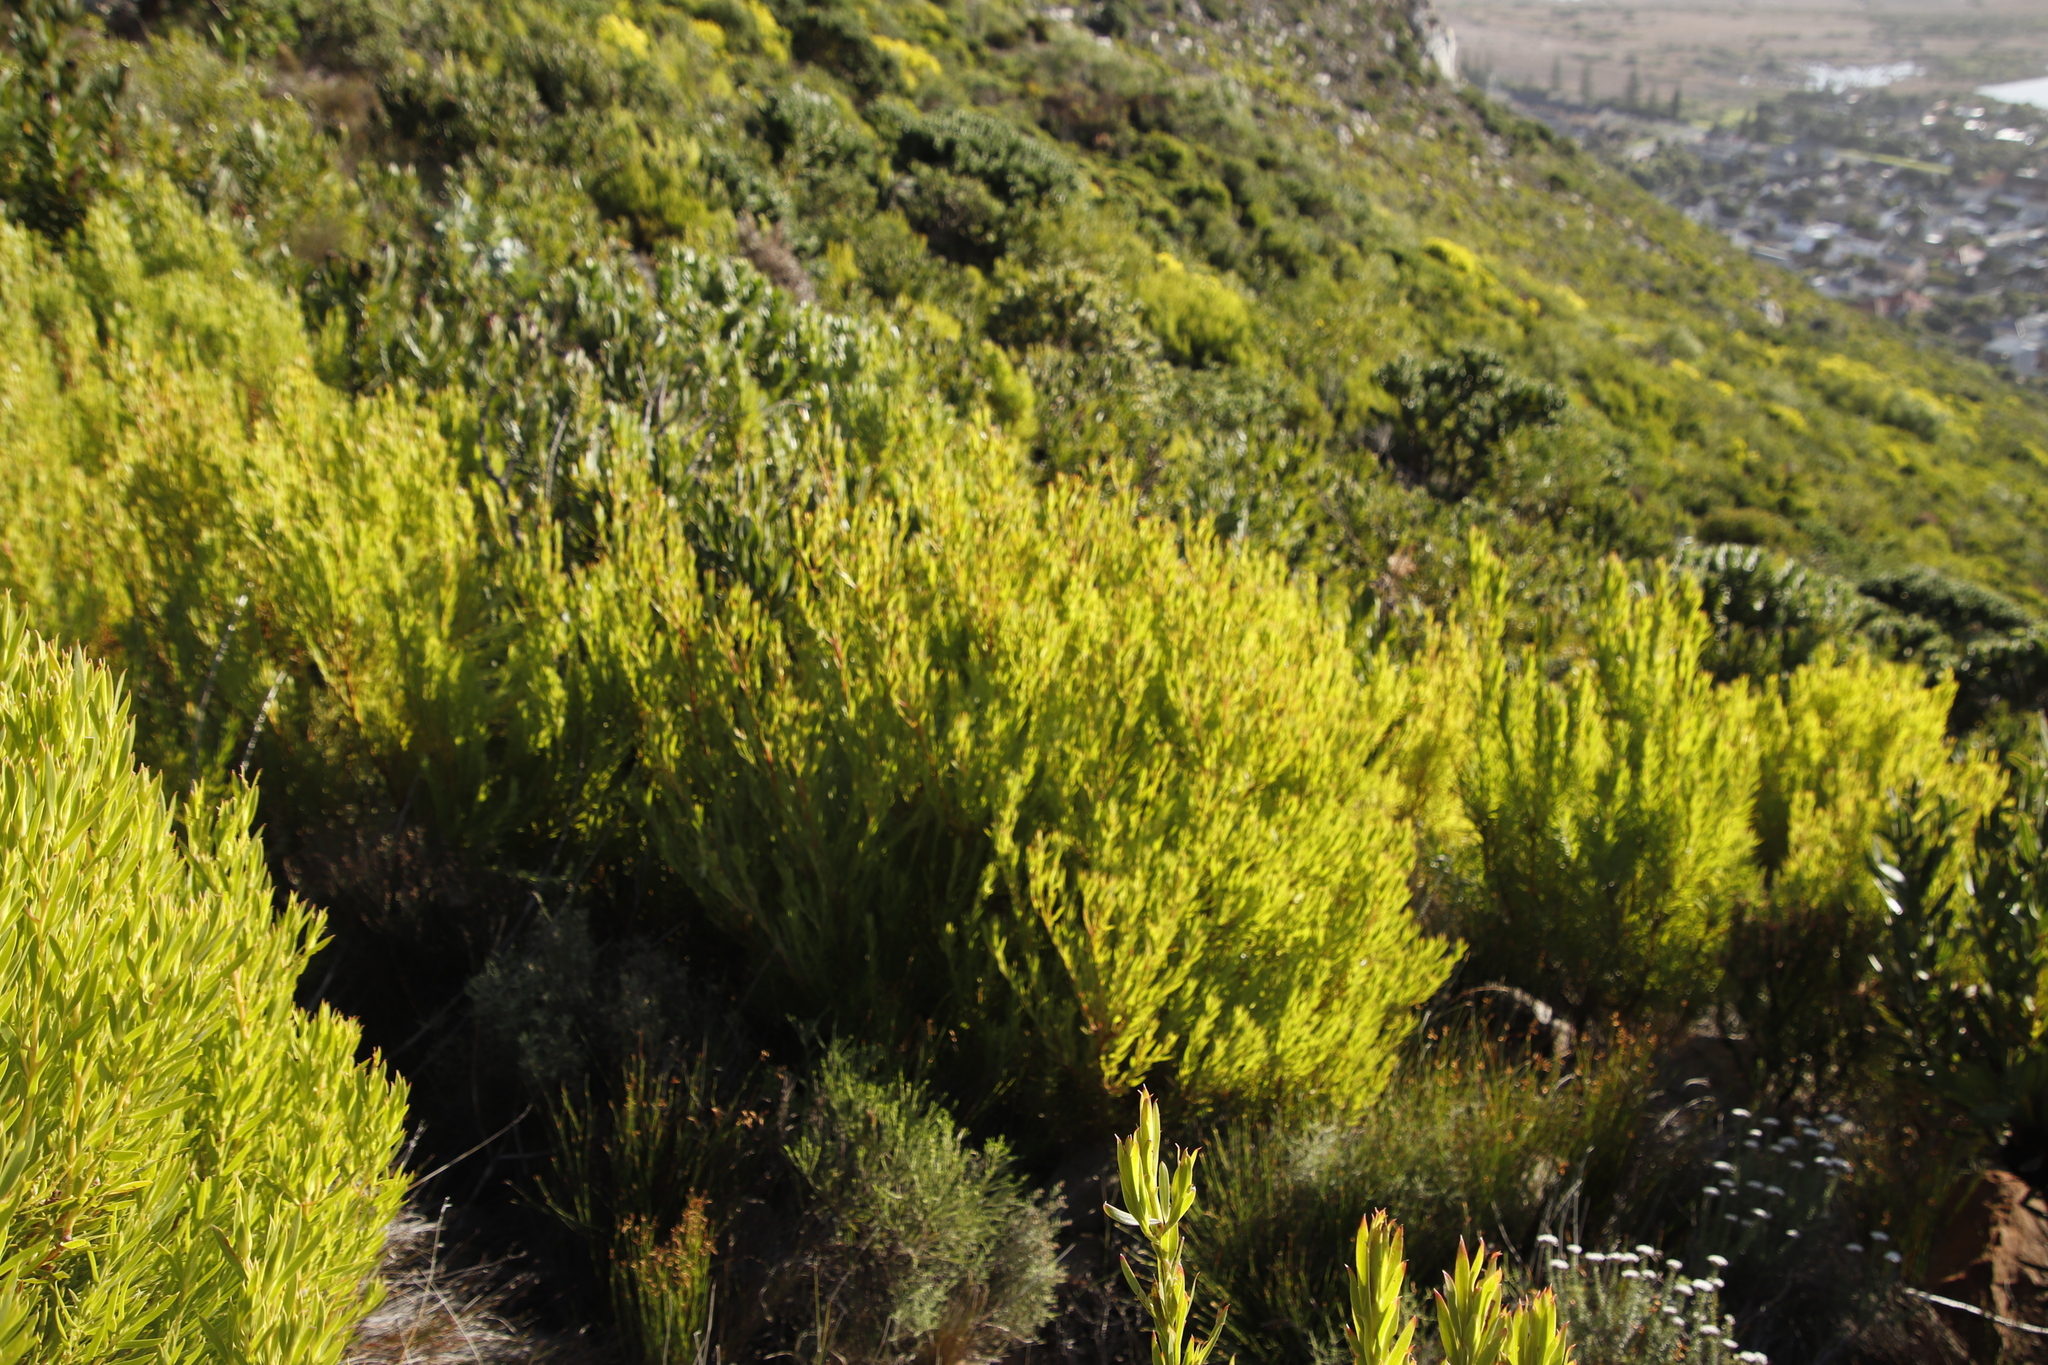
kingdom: Plantae
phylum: Tracheophyta
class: Magnoliopsida
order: Proteales
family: Proteaceae
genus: Leucadendron
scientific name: Leucadendron xanthoconus
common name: Sickle-leaf conebush
